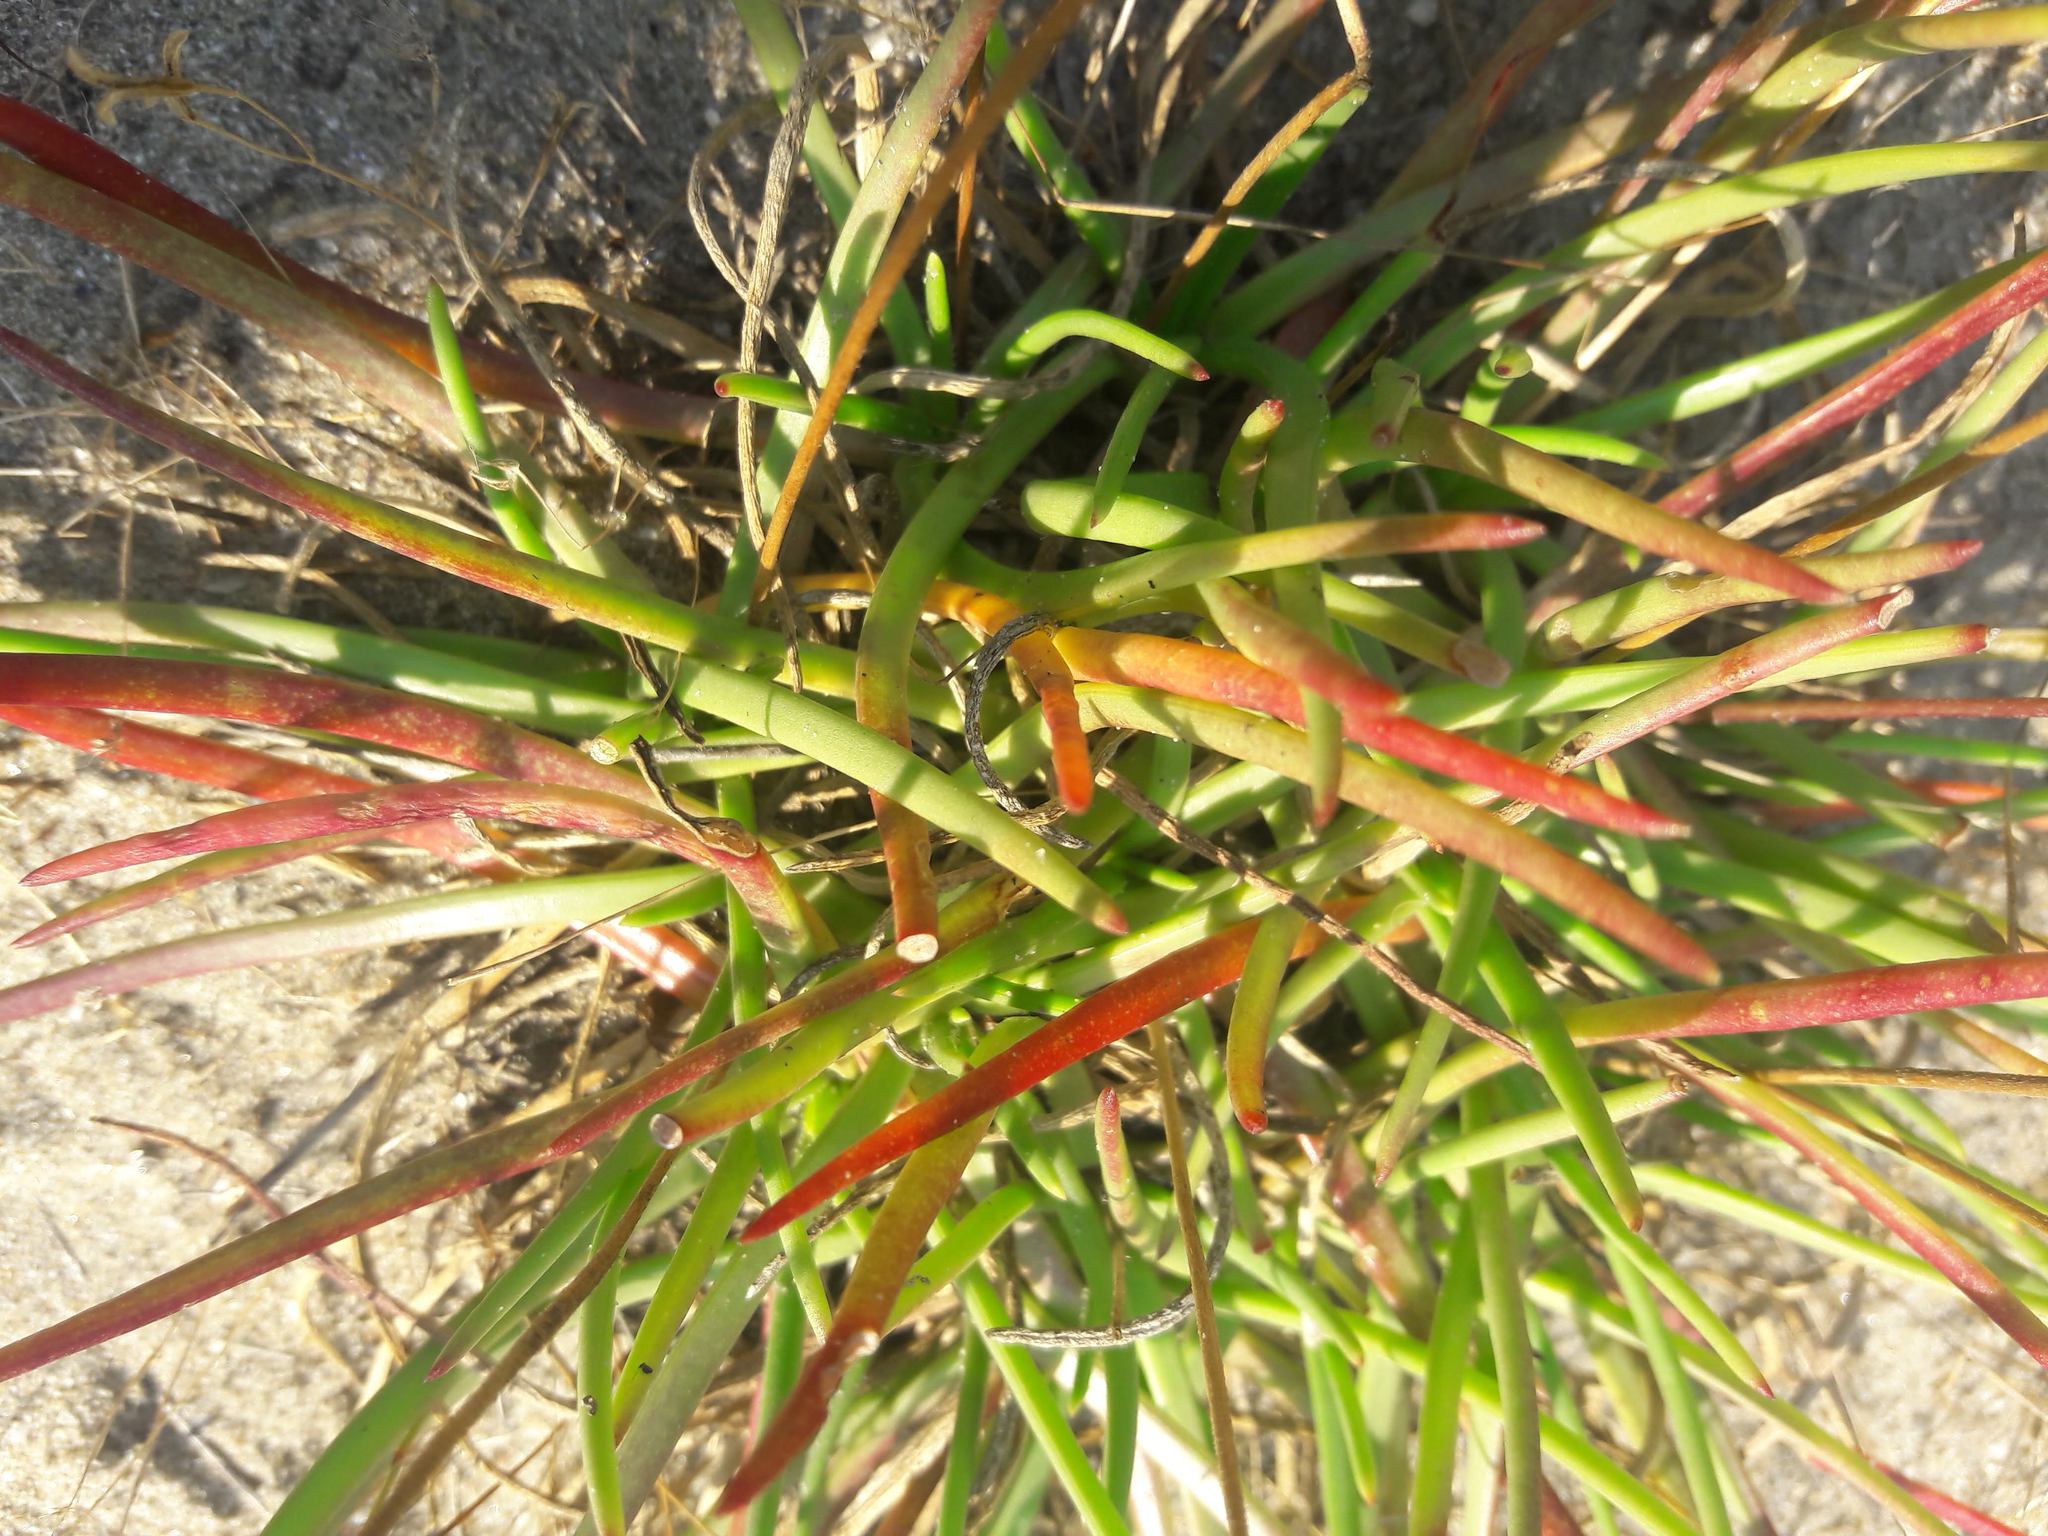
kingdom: Plantae
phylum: Tracheophyta
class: Magnoliopsida
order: Lamiales
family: Plantaginaceae
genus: Plantago
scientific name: Plantago crassifolia
